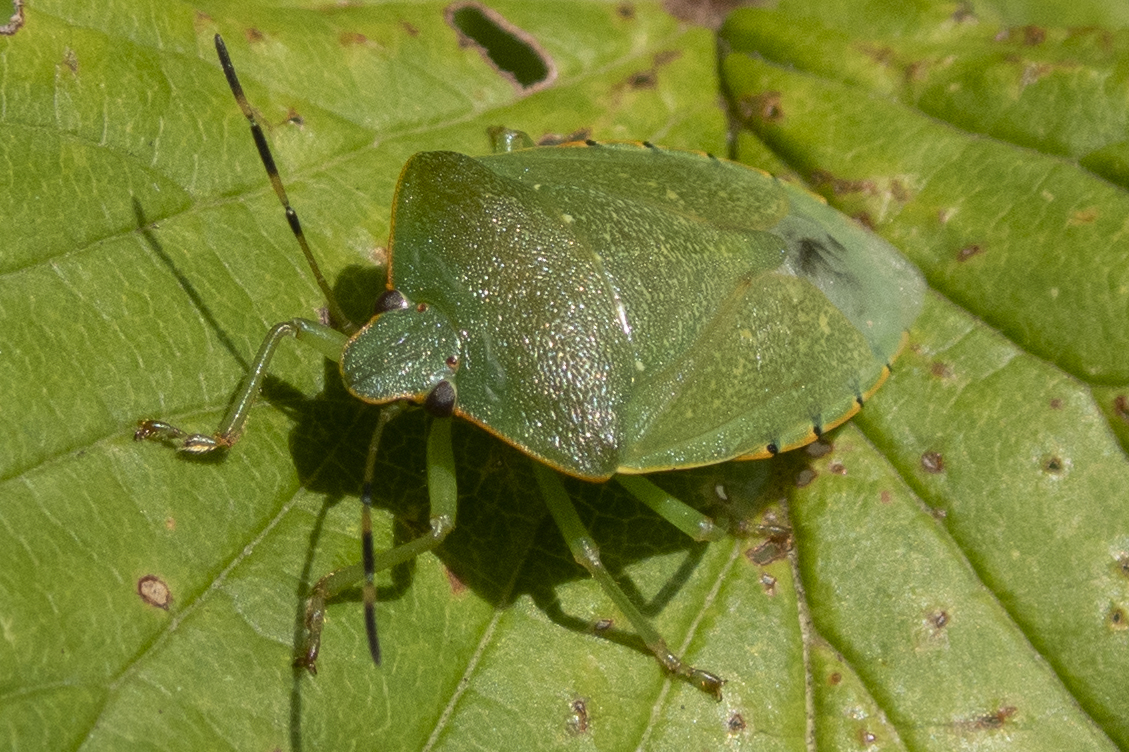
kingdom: Animalia
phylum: Arthropoda
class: Insecta
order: Hemiptera
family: Pentatomidae
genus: Chinavia
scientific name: Chinavia hilaris
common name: Green stink bug
